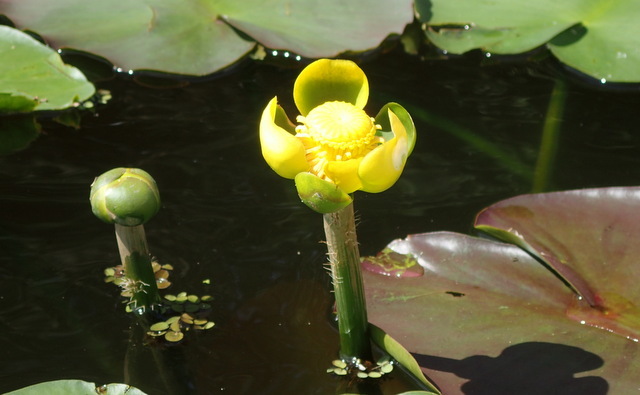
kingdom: Plantae
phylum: Tracheophyta
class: Magnoliopsida
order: Nymphaeales
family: Nymphaeaceae
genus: Nuphar
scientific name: Nuphar advena
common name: Spatter-dock
